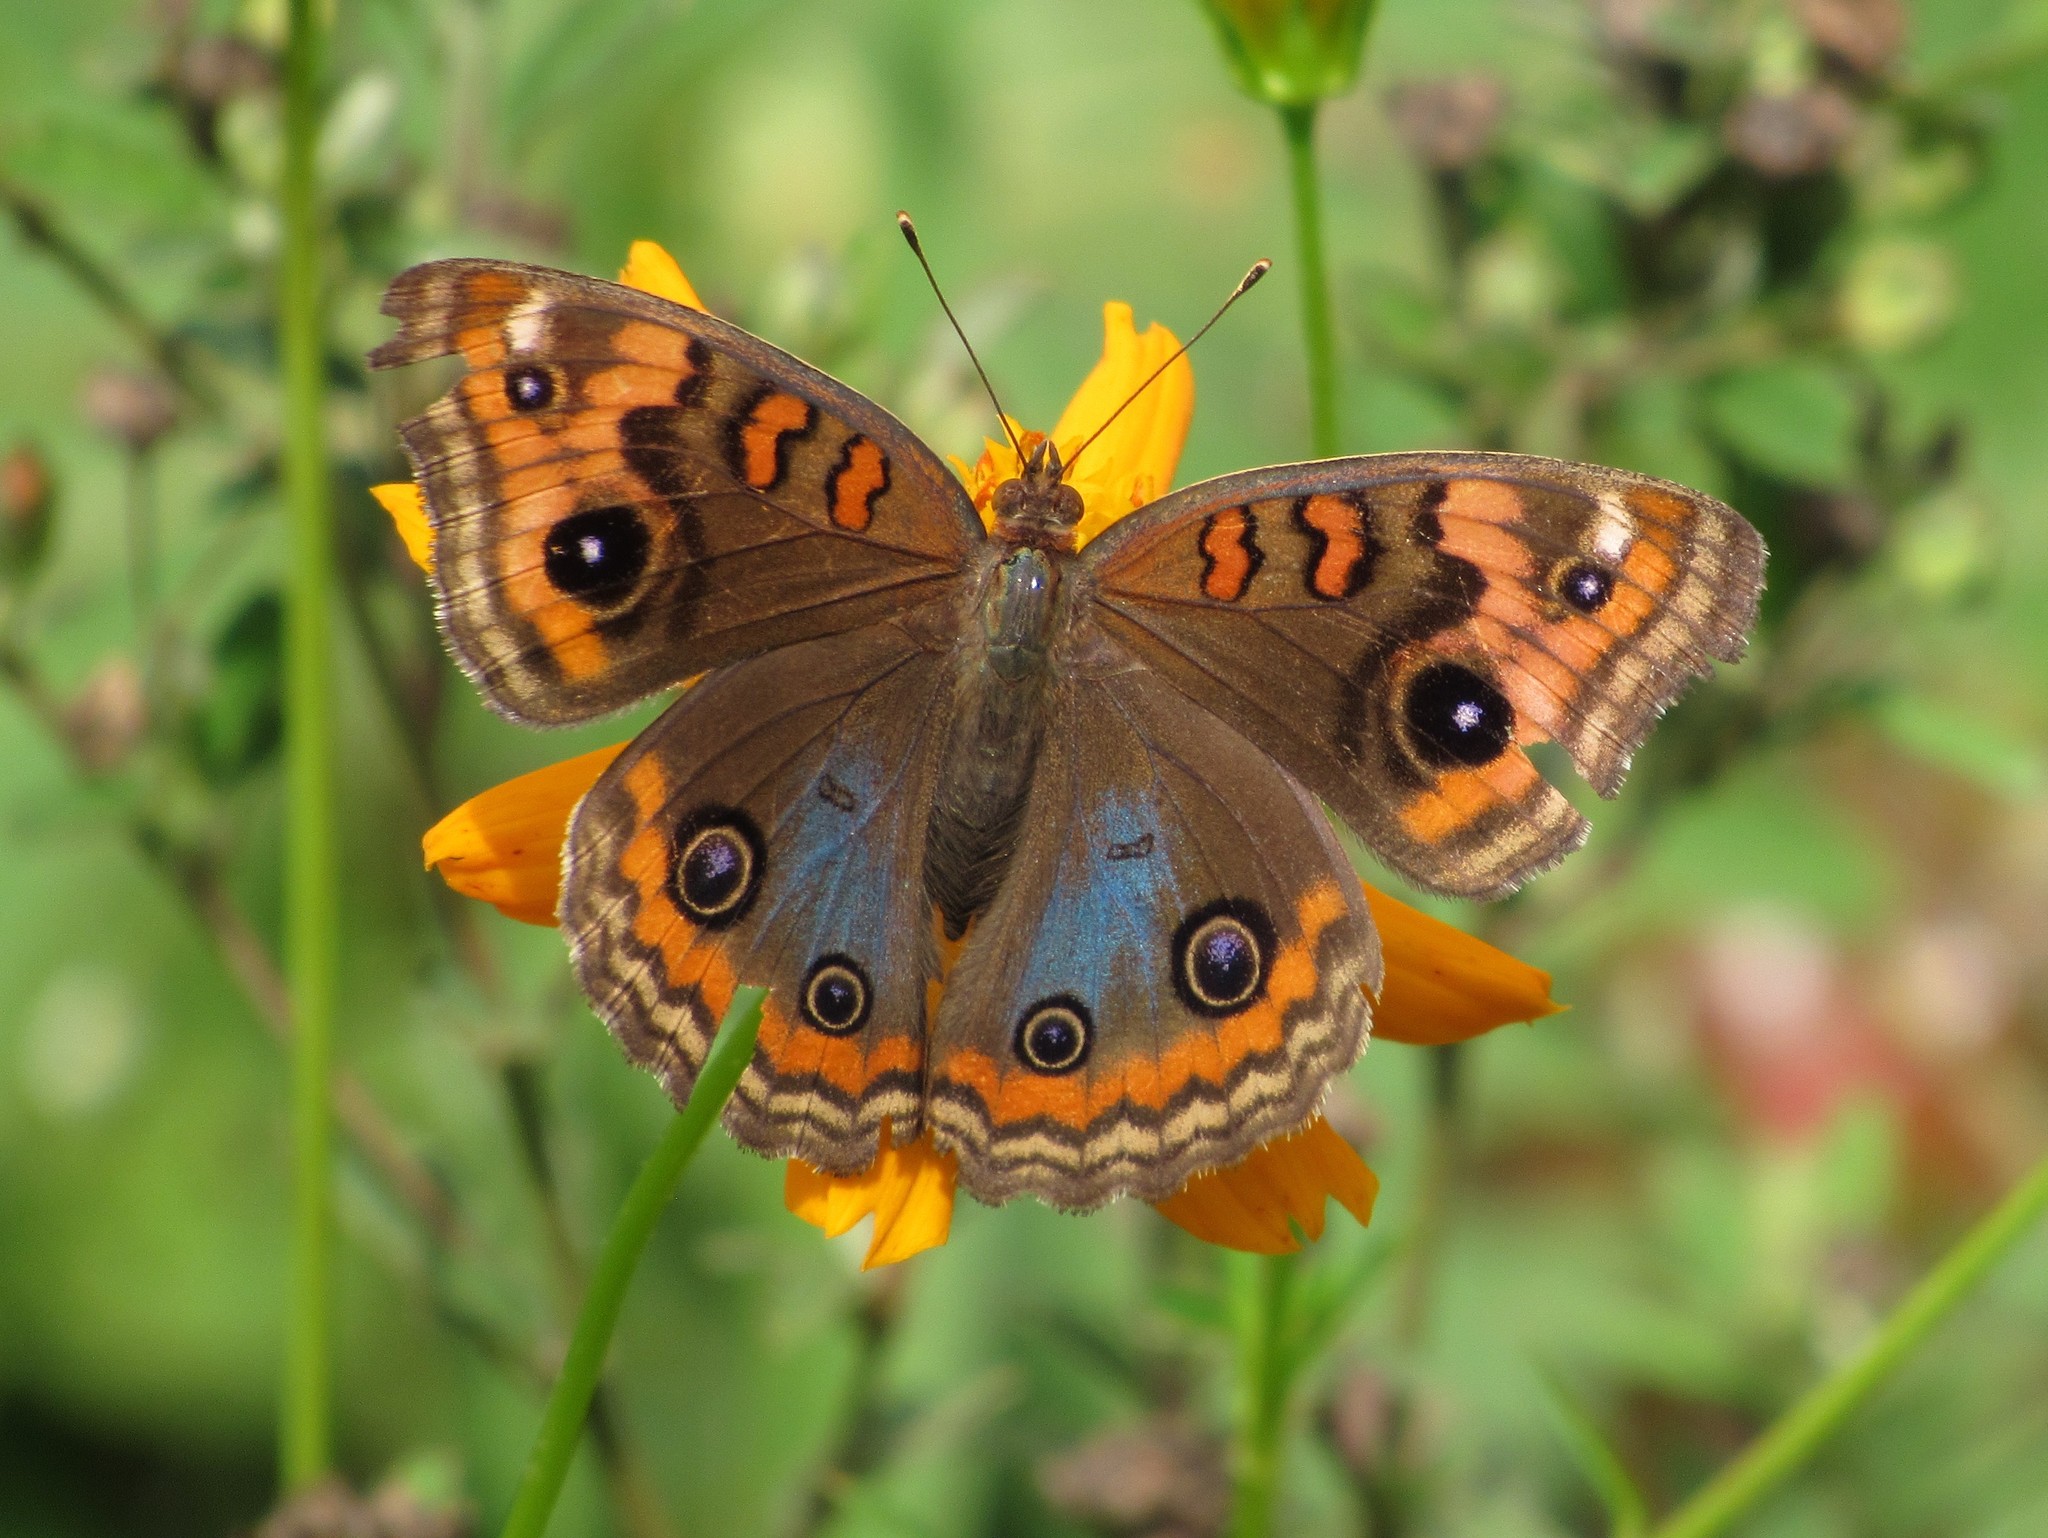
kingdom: Animalia
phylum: Arthropoda
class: Insecta
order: Lepidoptera
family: Nymphalidae
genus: Junonia
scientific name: Junonia evarete
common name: Black mangrove buckeye
